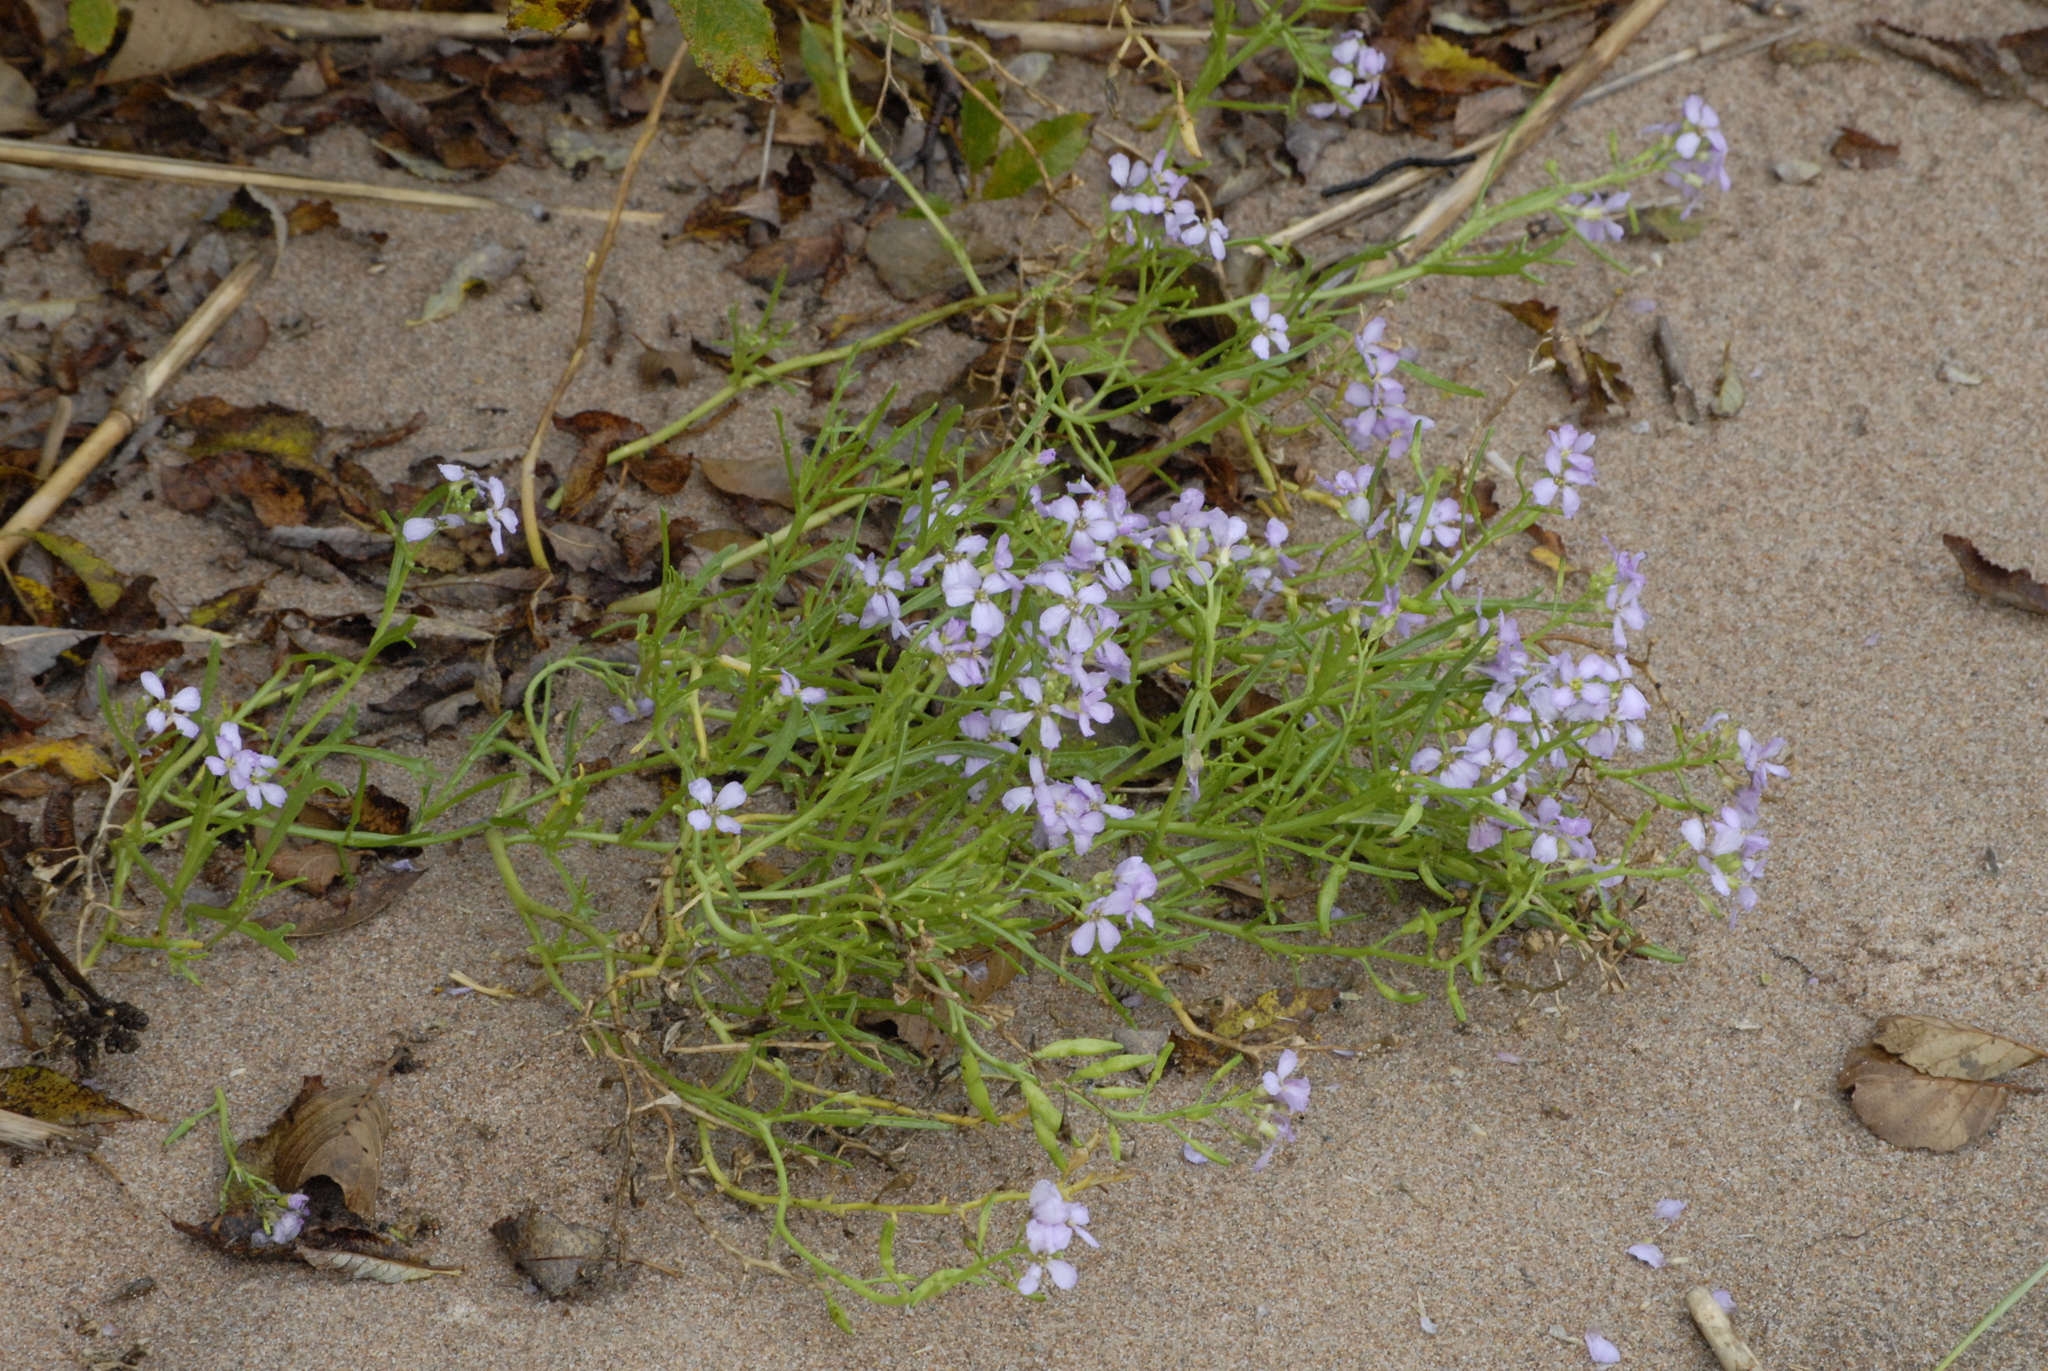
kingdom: Plantae
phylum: Tracheophyta
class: Magnoliopsida
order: Brassicales
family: Brassicaceae
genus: Cakile
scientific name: Cakile maritima
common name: Sea rocket
